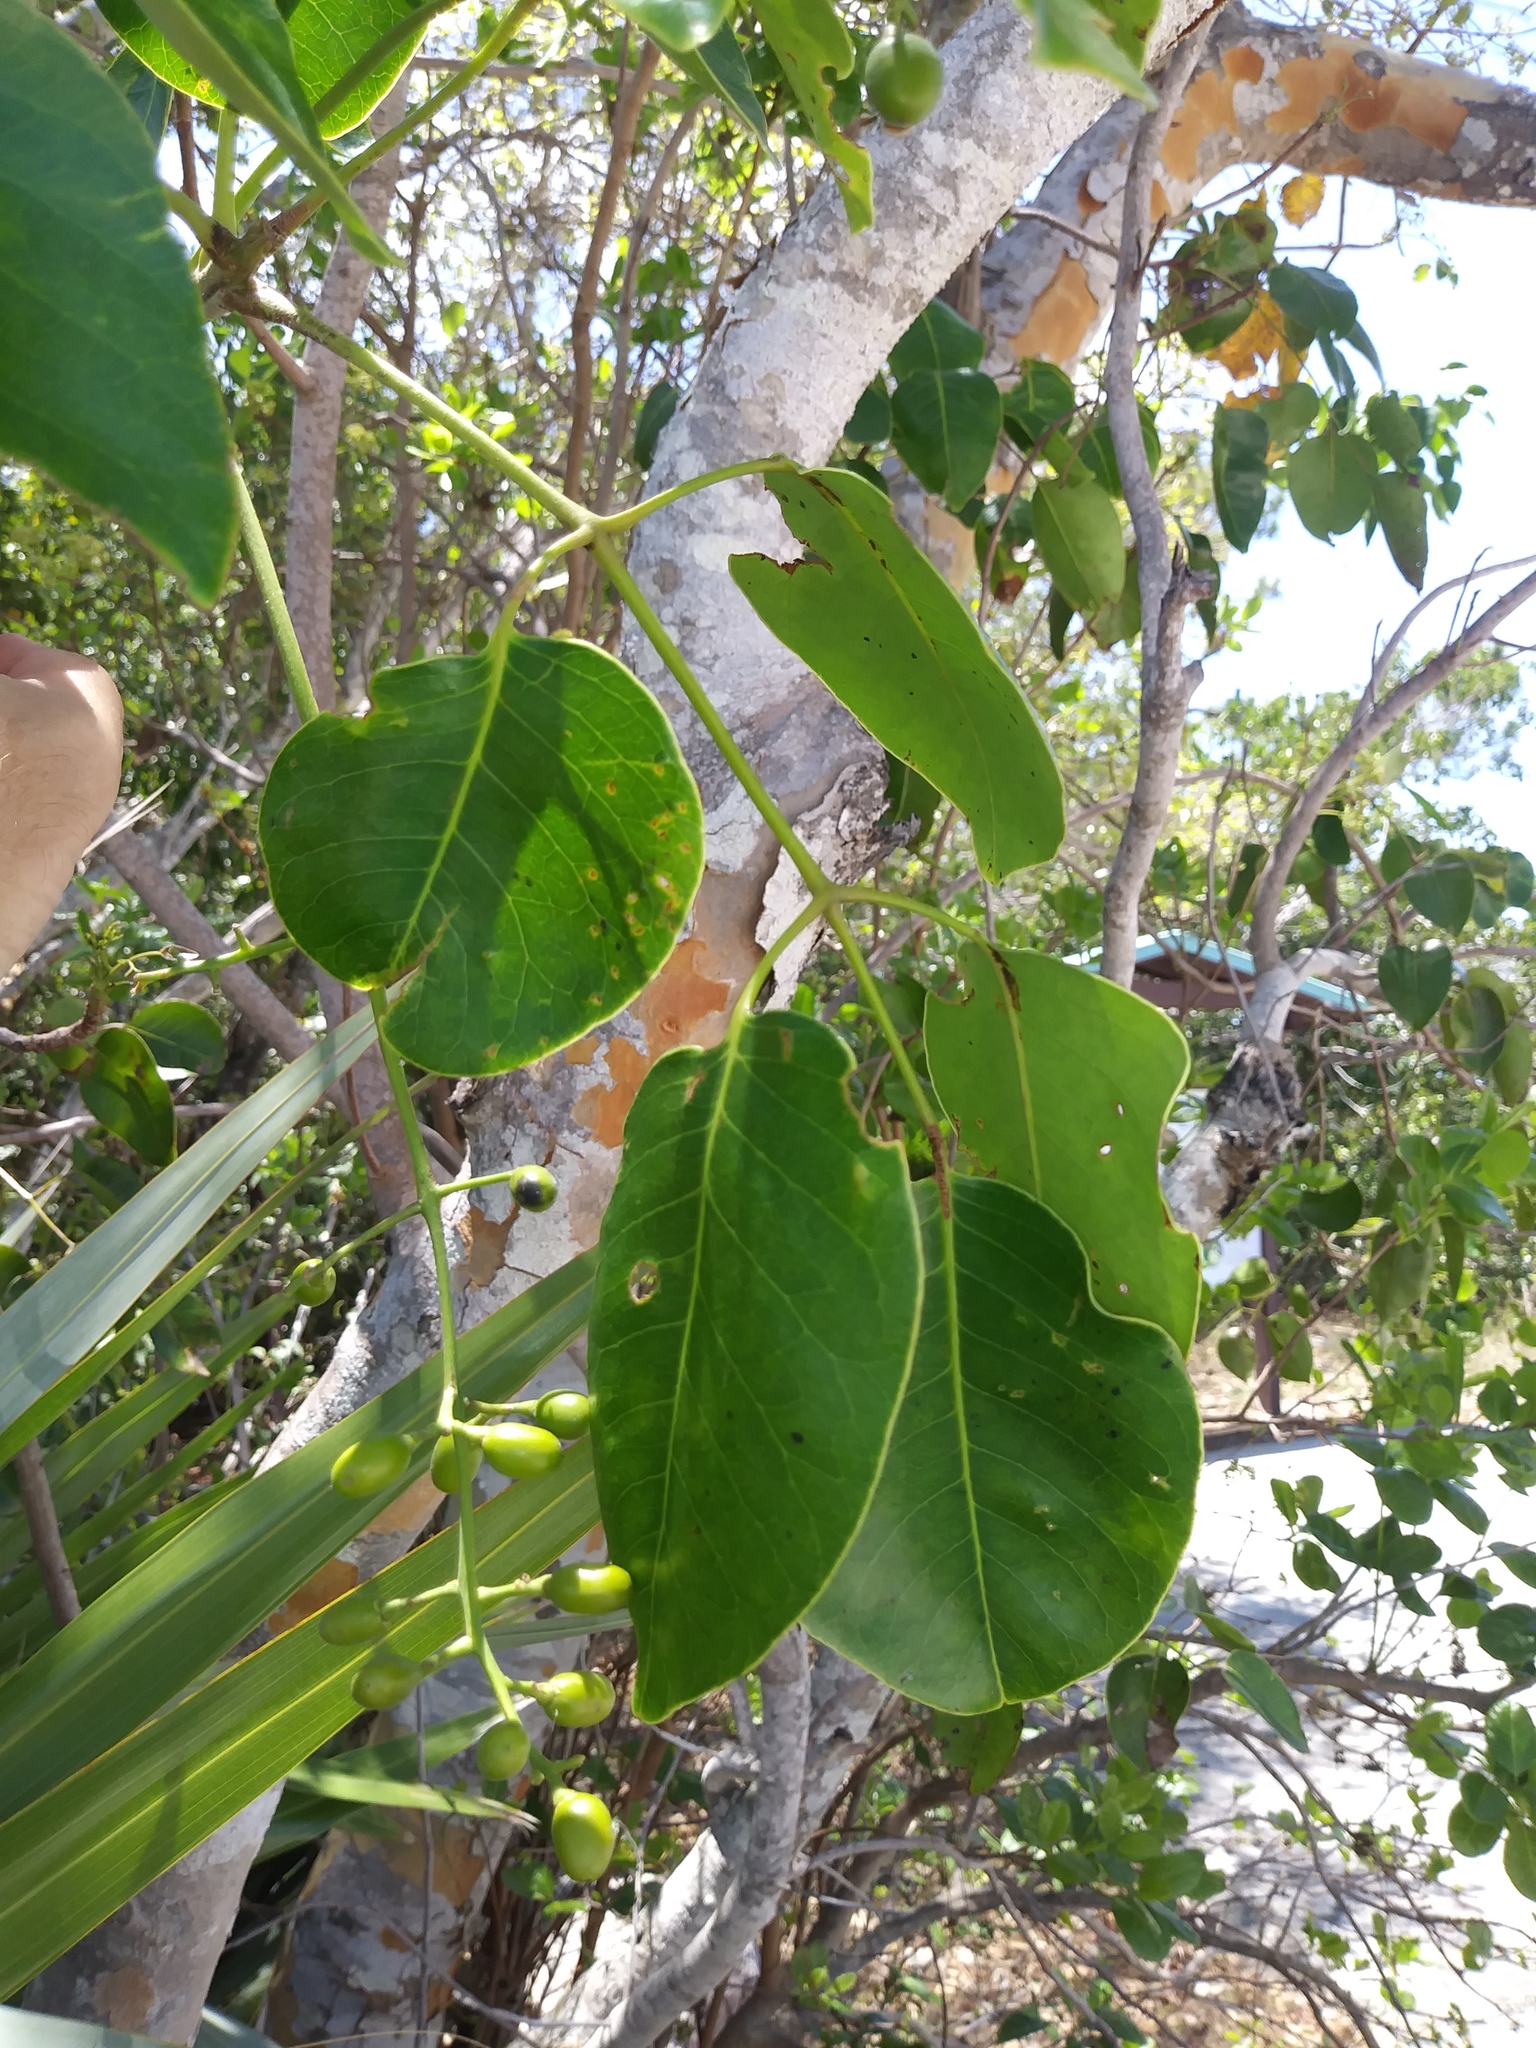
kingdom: Plantae
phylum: Tracheophyta
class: Magnoliopsida
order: Sapindales
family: Anacardiaceae
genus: Metopium
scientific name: Metopium toxiferum
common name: Florida poisontree
